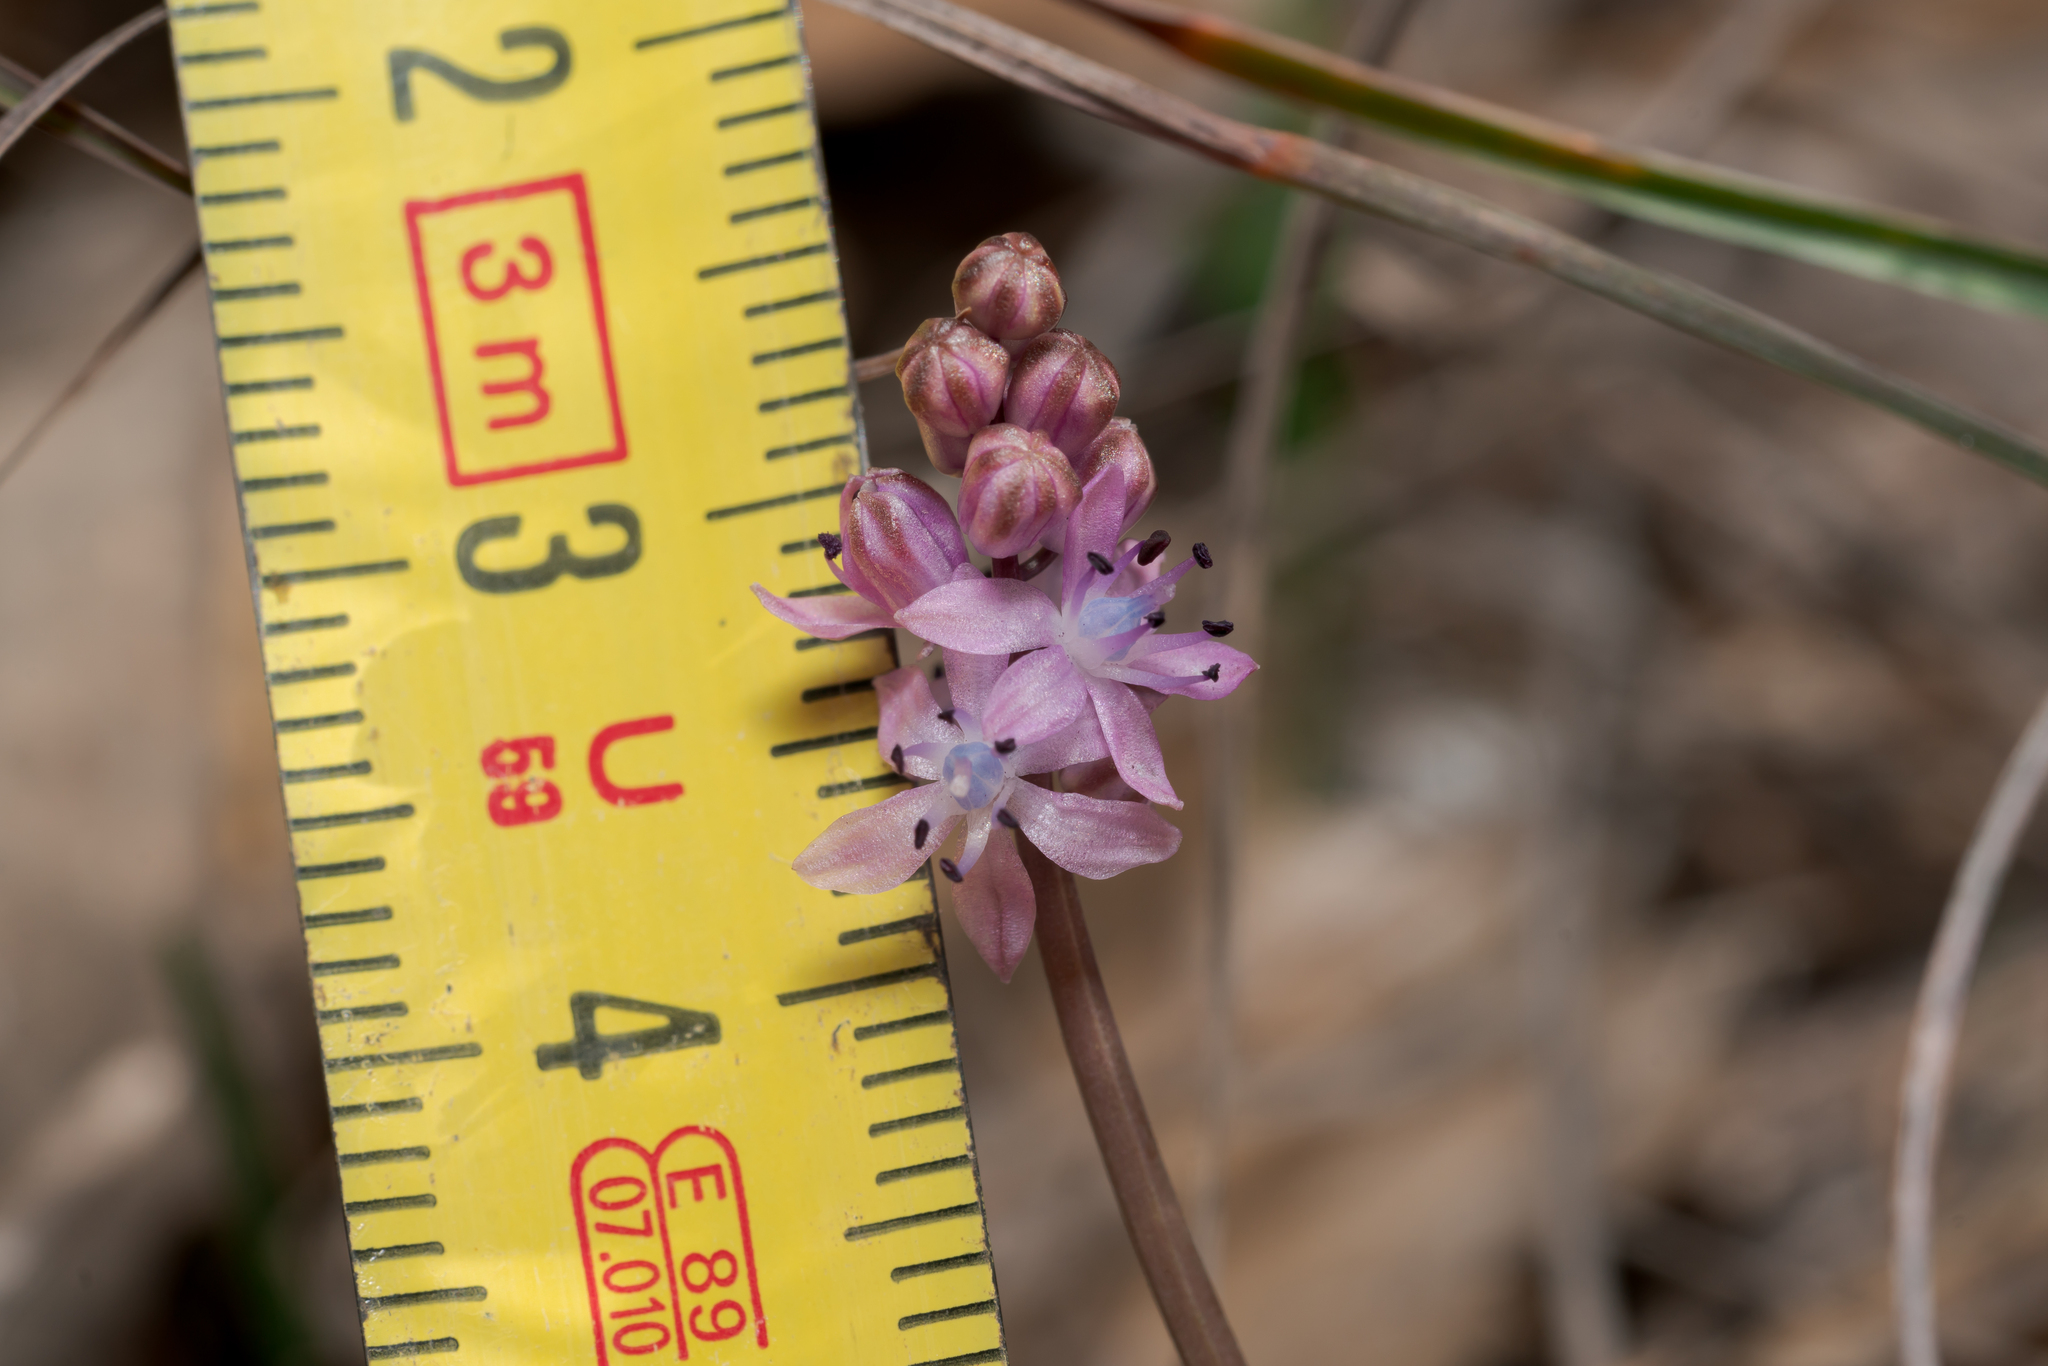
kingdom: Plantae
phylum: Tracheophyta
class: Liliopsida
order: Asparagales
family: Asparagaceae
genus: Prospero
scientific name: Prospero autumnale
